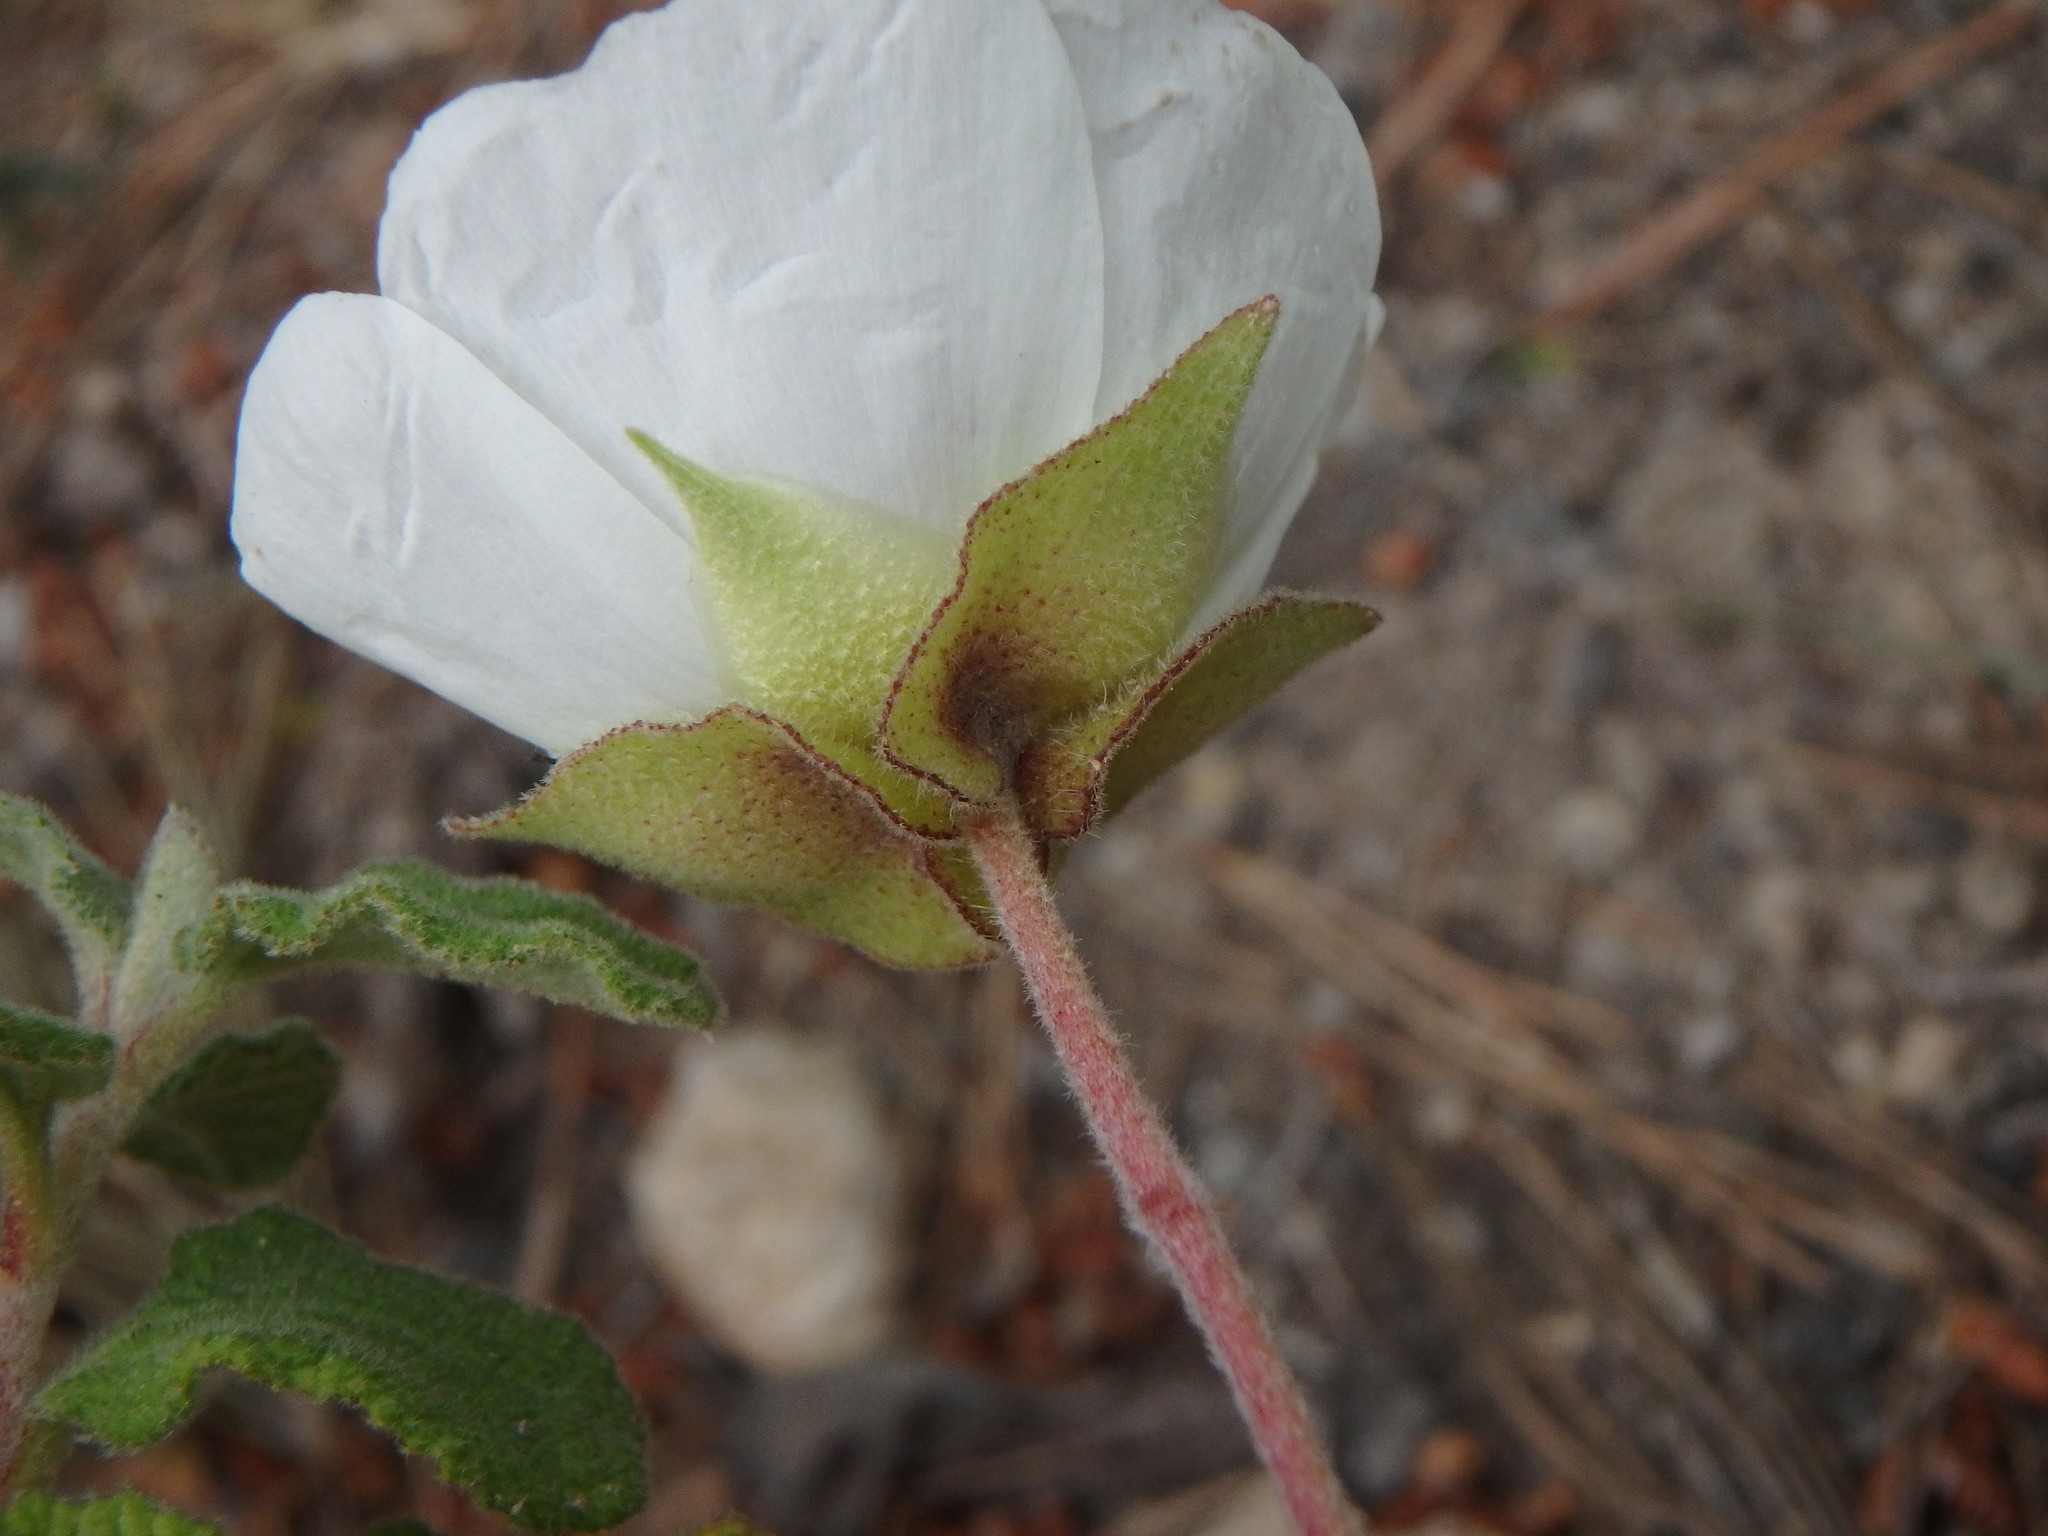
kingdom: Plantae
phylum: Tracheophyta
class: Magnoliopsida
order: Malvales
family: Cistaceae
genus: Cistus
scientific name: Cistus salviifolius
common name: Salvia cistus
